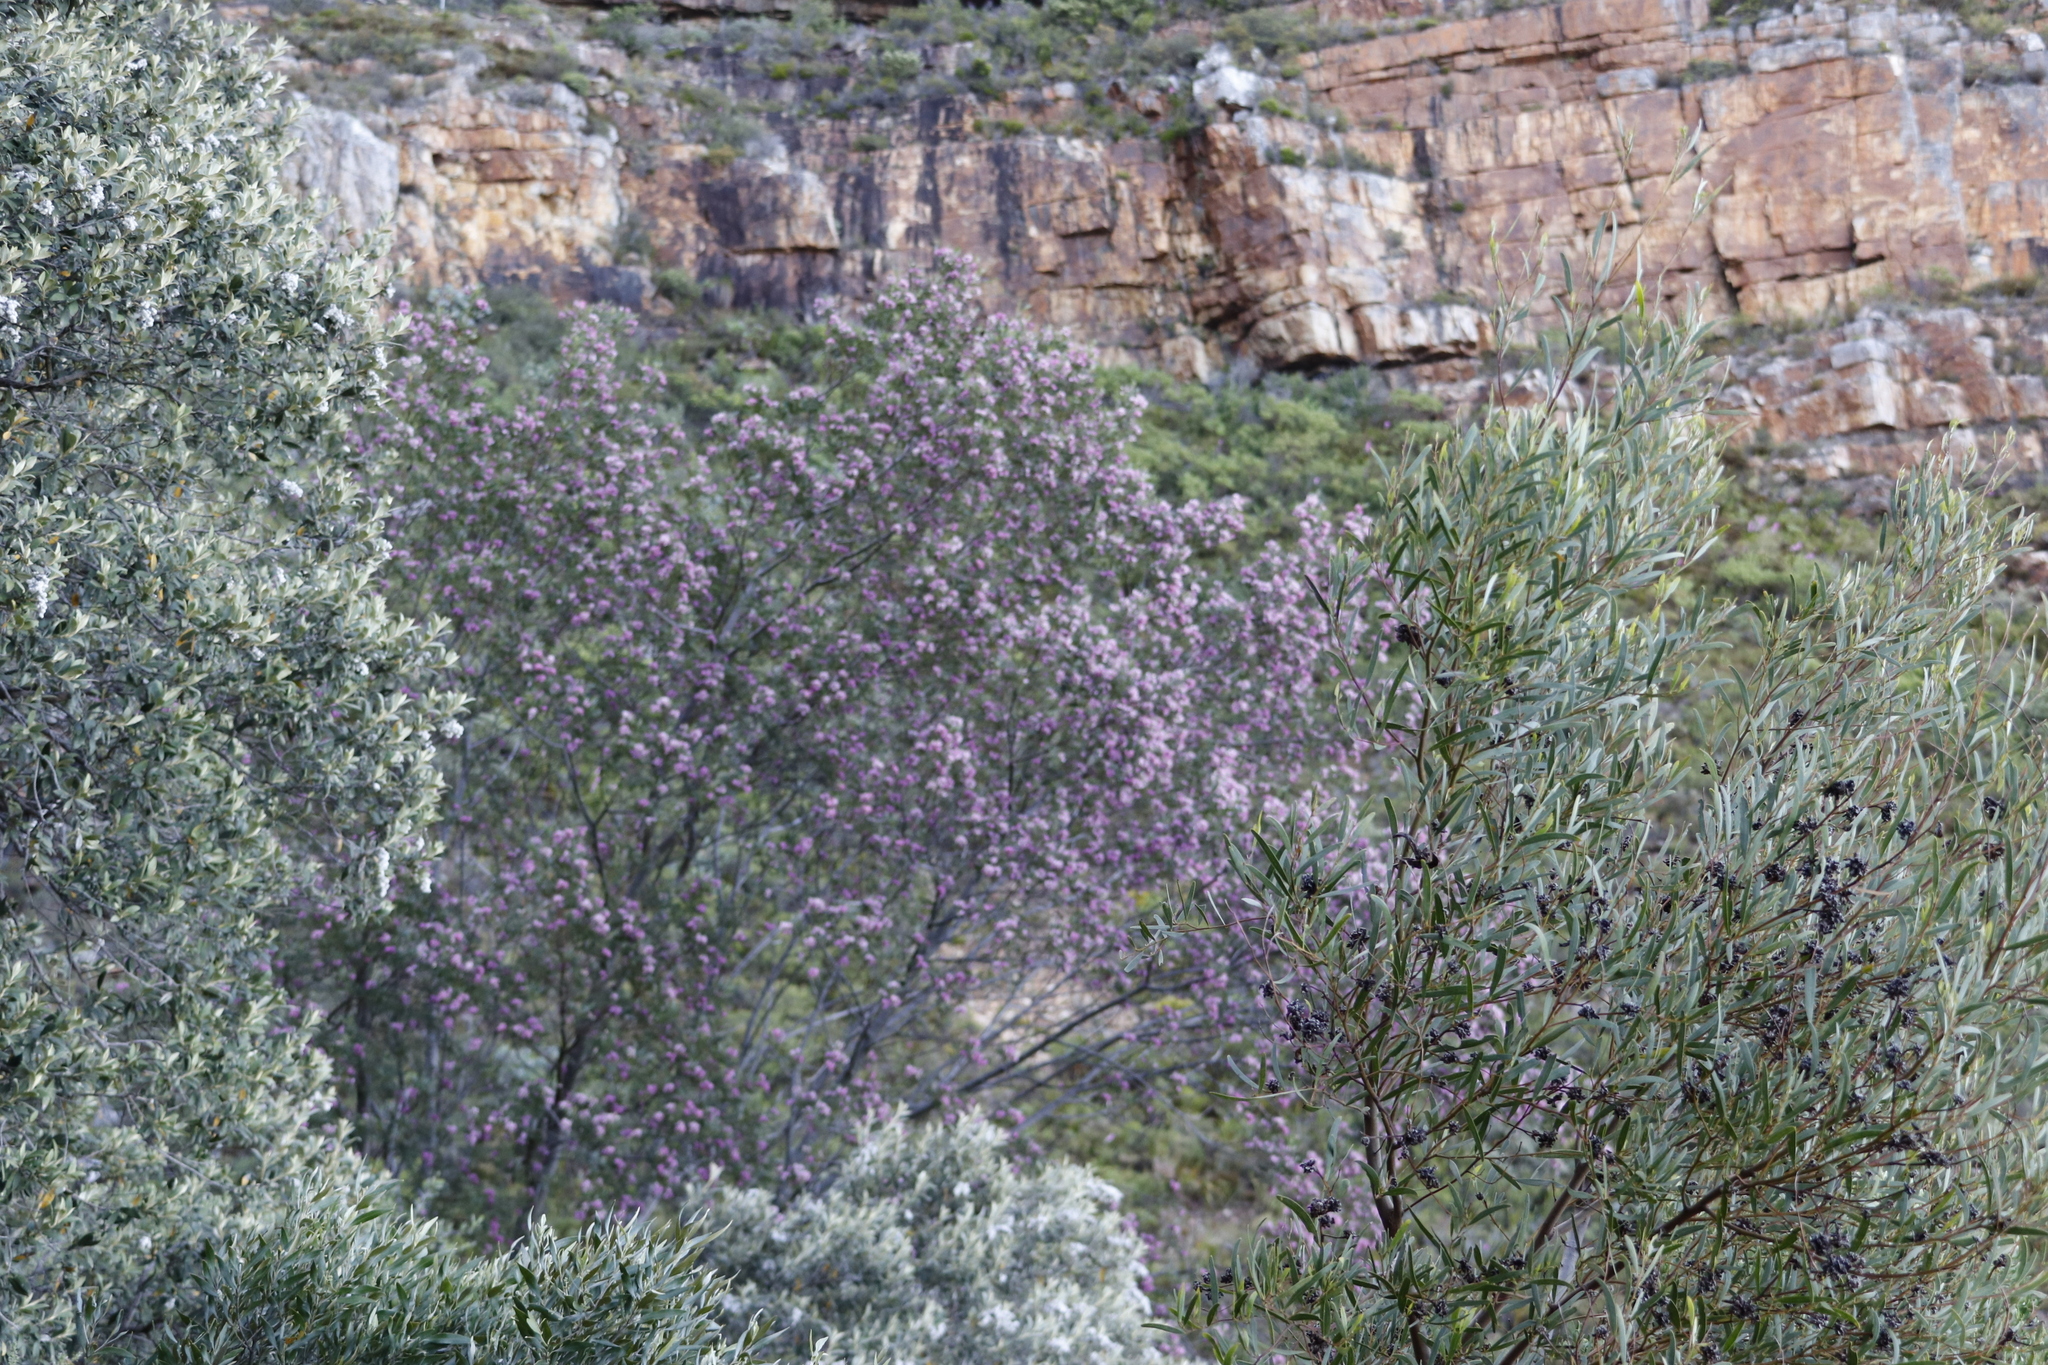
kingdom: Plantae
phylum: Tracheophyta
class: Magnoliopsida
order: Fabales
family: Fabaceae
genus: Virgilia
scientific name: Virgilia oroboides
